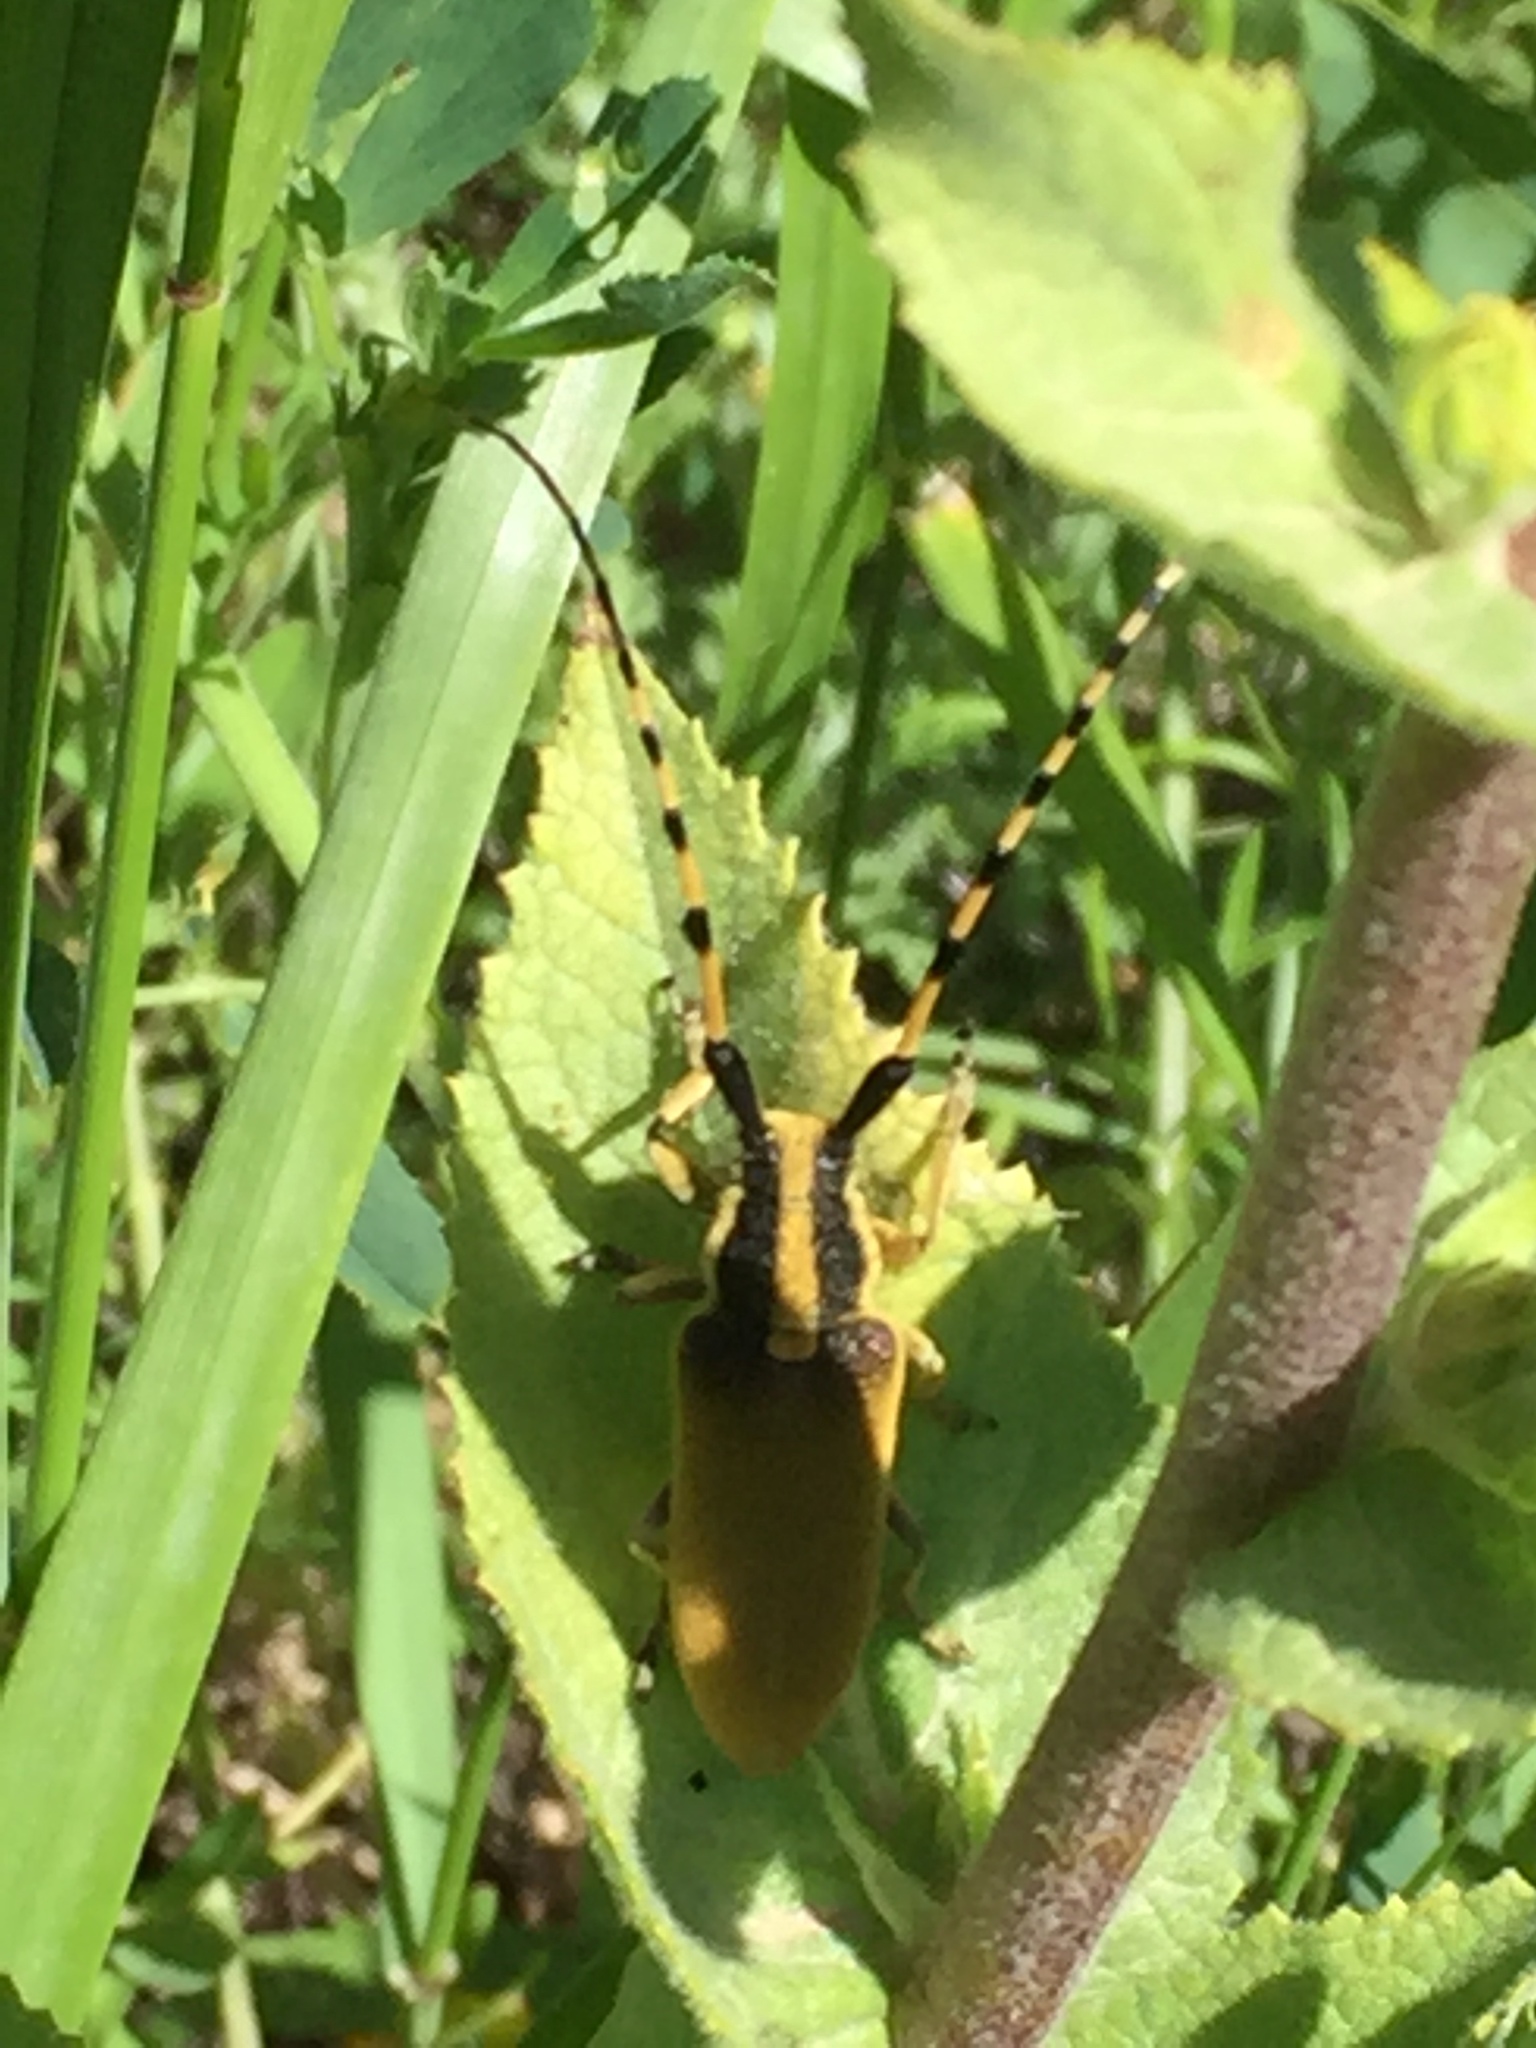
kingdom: Animalia
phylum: Arthropoda
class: Insecta
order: Coleoptera
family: Cerambycidae
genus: Agapanthia
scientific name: Agapanthia kirbyi
